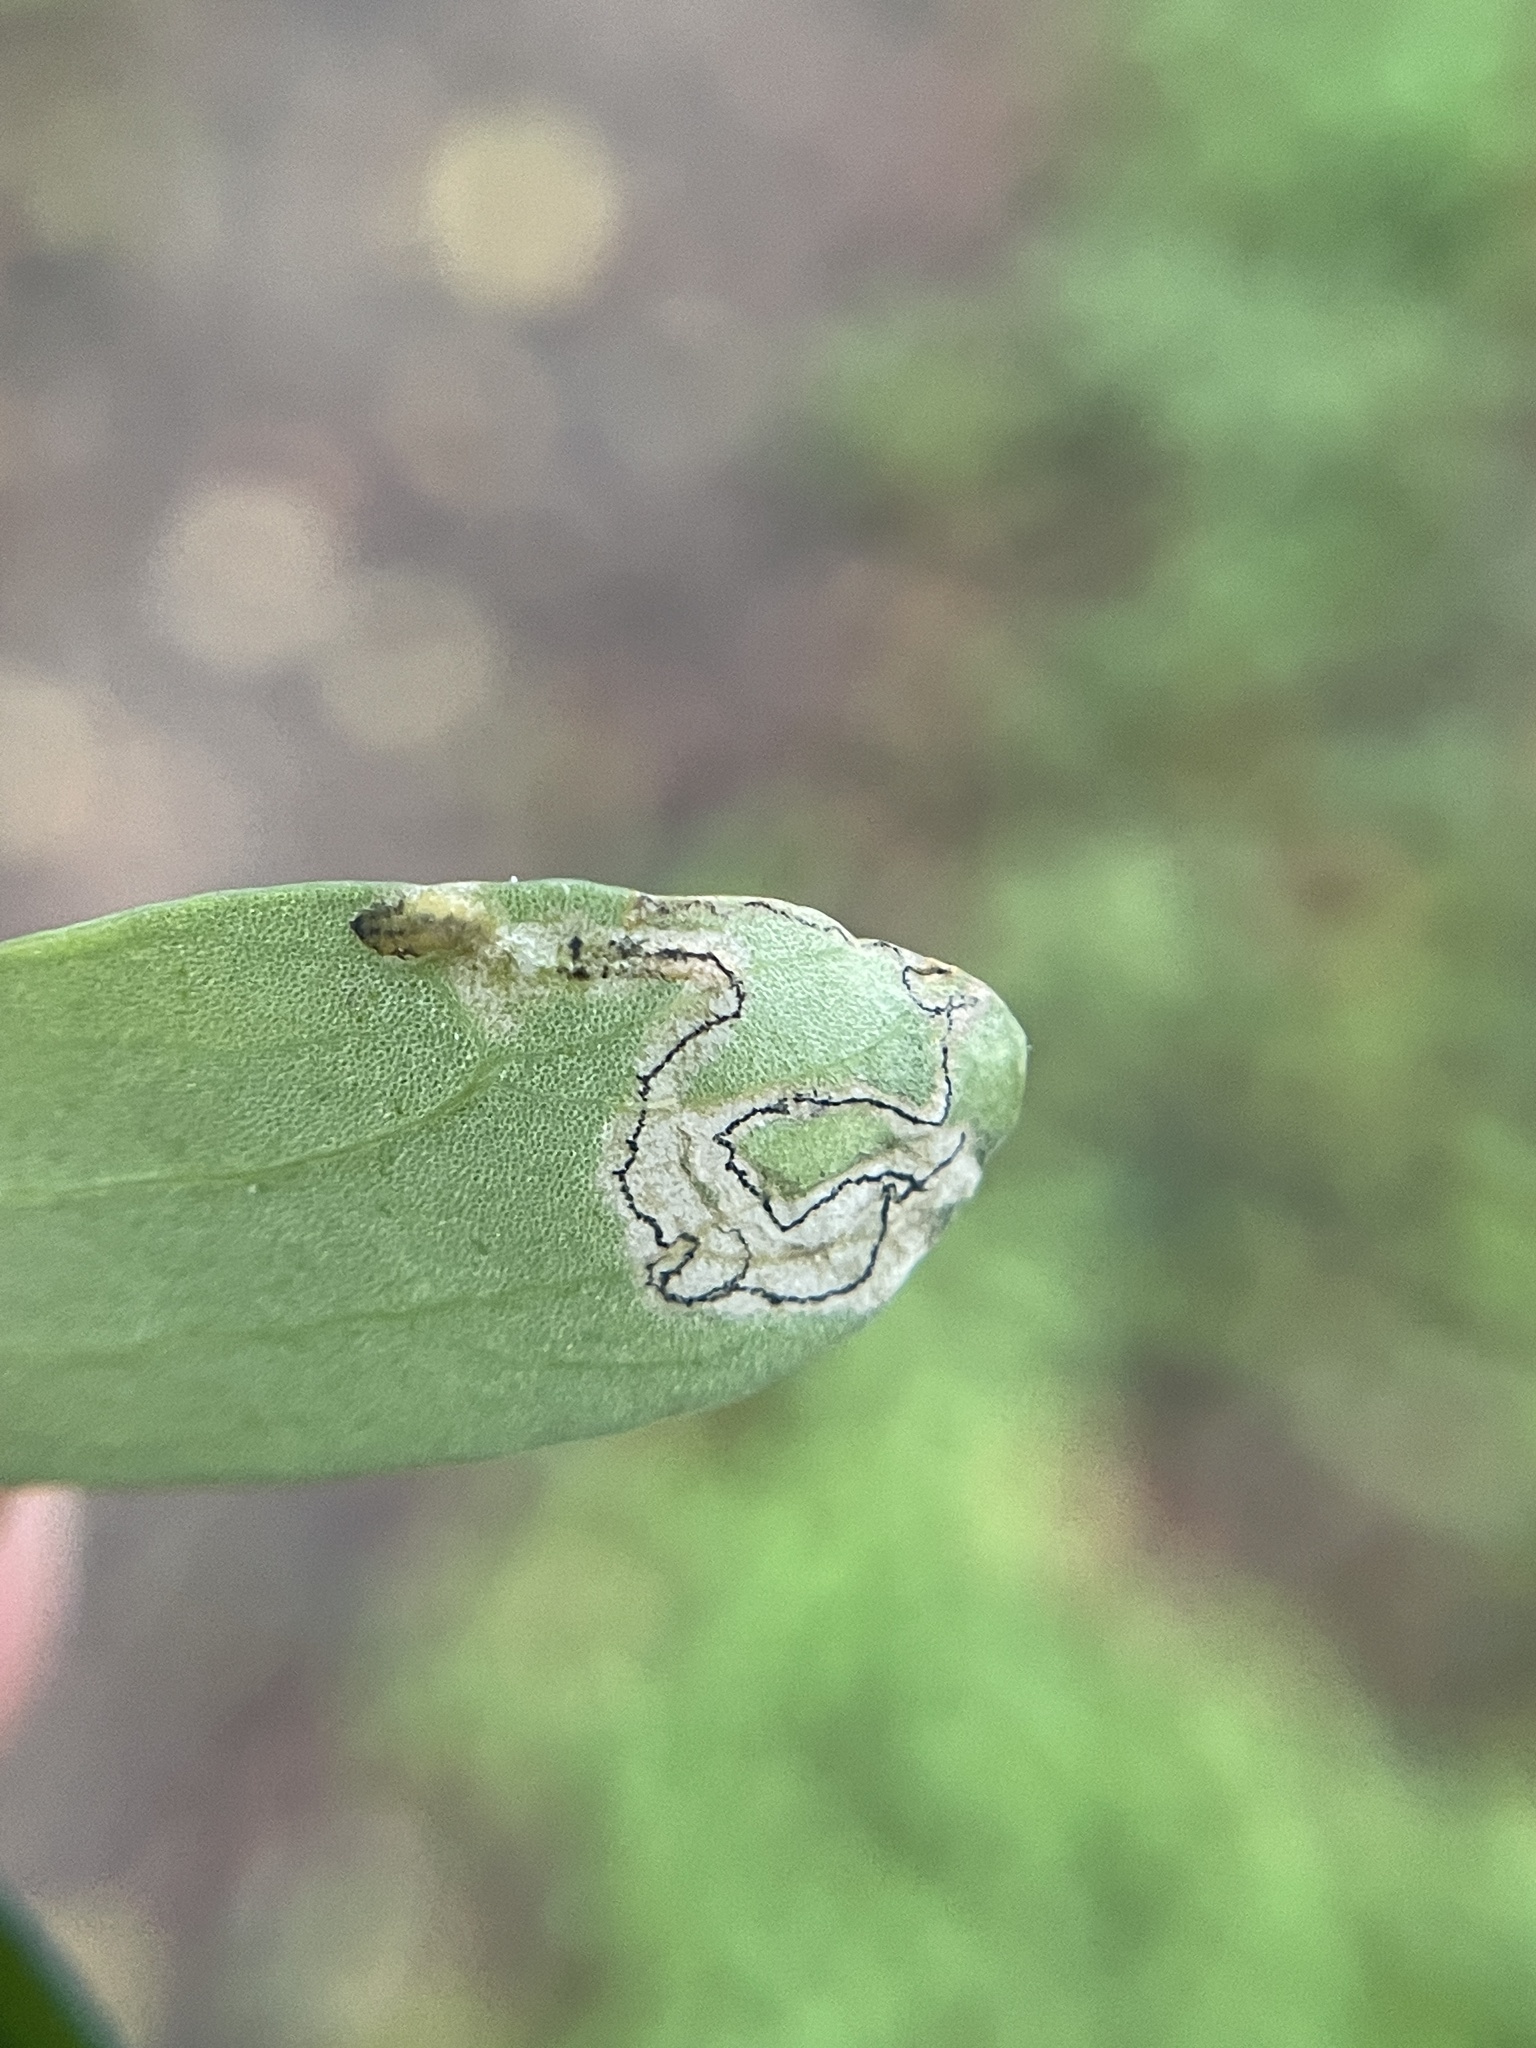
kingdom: Animalia
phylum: Arthropoda
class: Insecta
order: Coleoptera
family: Chrysomelidae
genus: Mantura
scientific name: Mantura floridana
